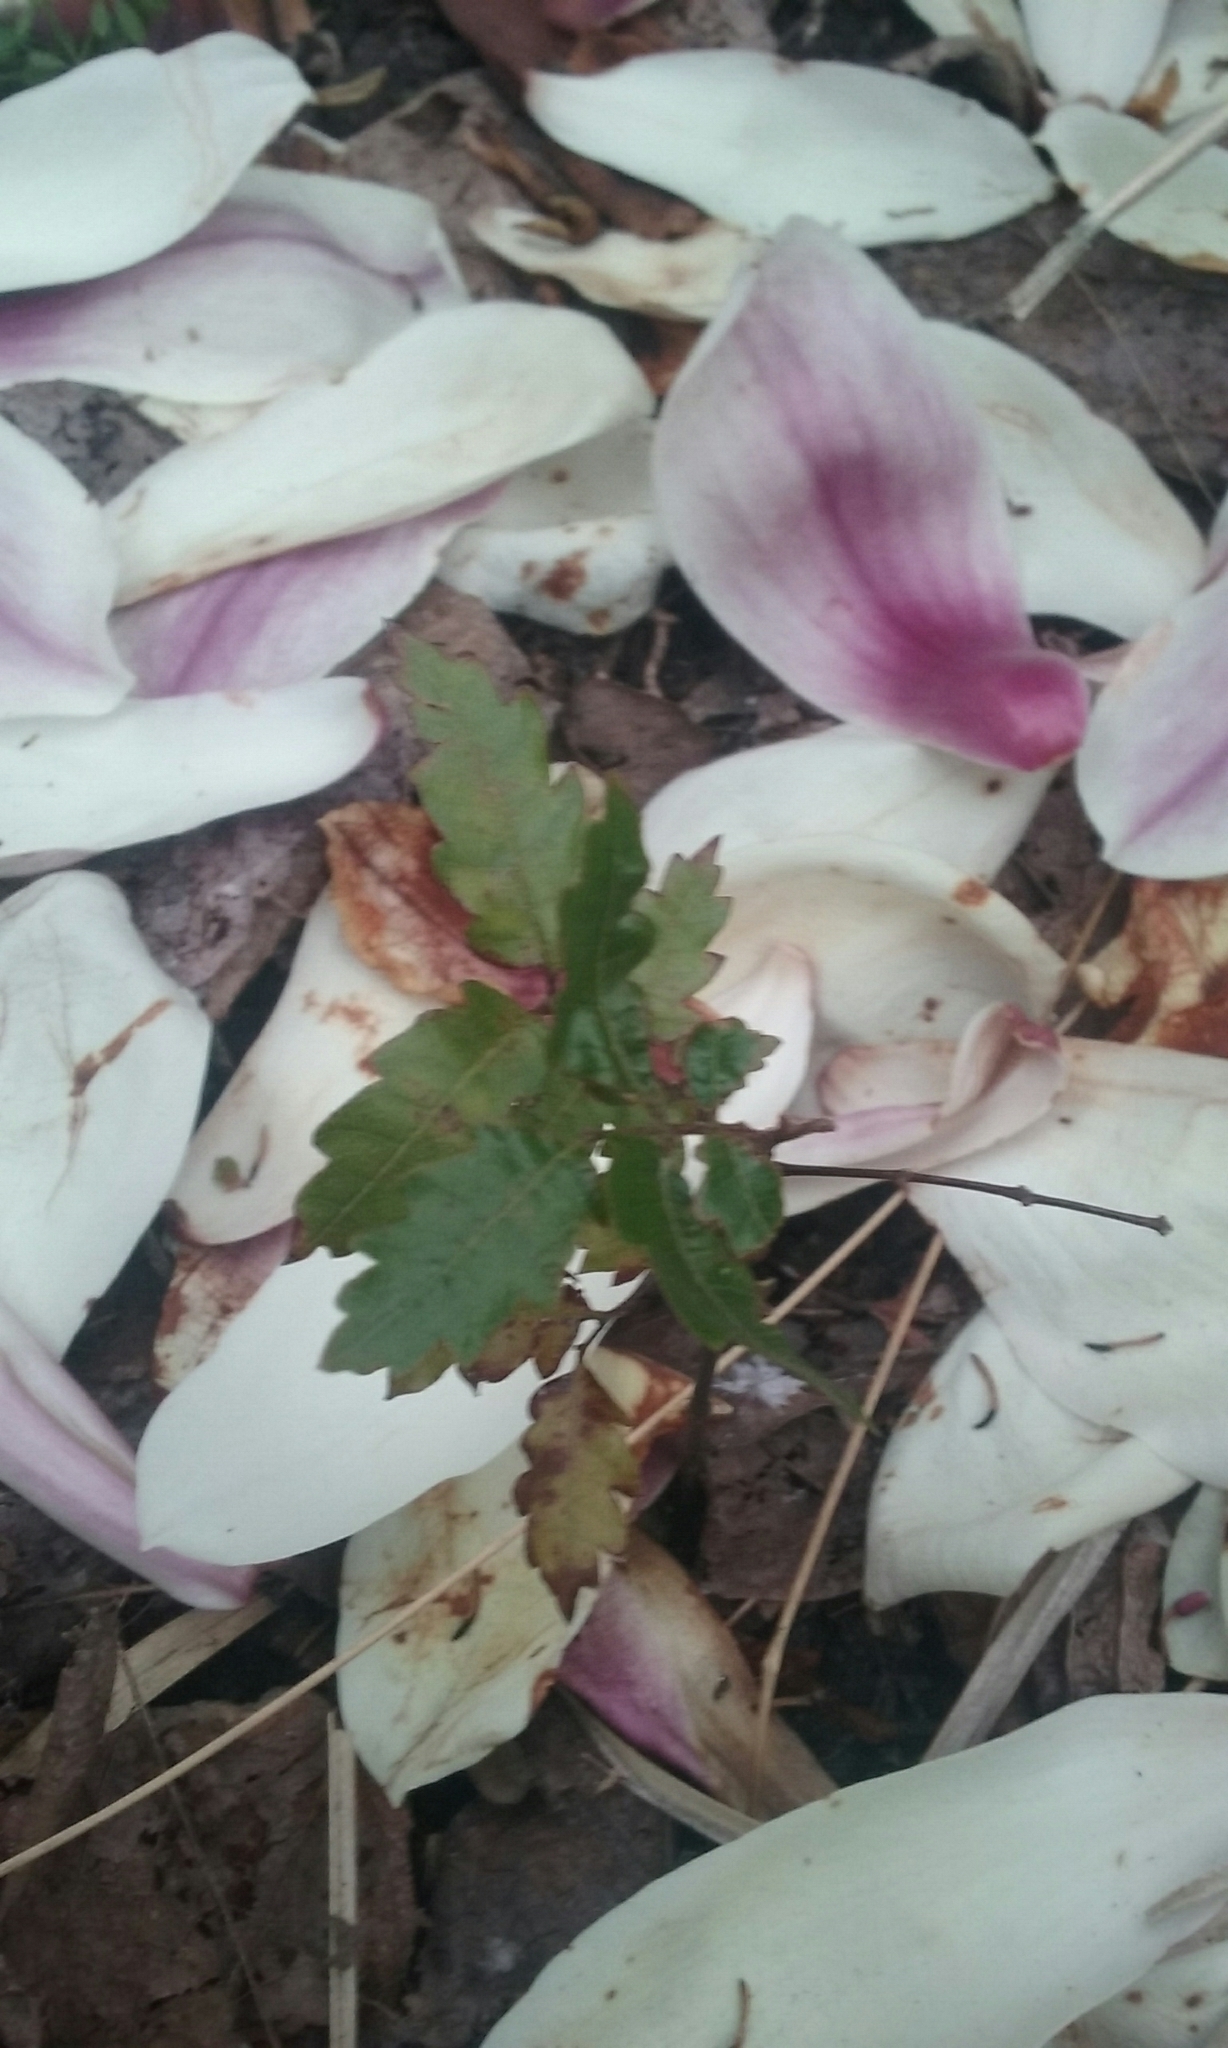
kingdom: Plantae
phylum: Tracheophyta
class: Magnoliopsida
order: Sapindales
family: Sapindaceae
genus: Alectryon
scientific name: Alectryon excelsus
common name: Three kings titoki
